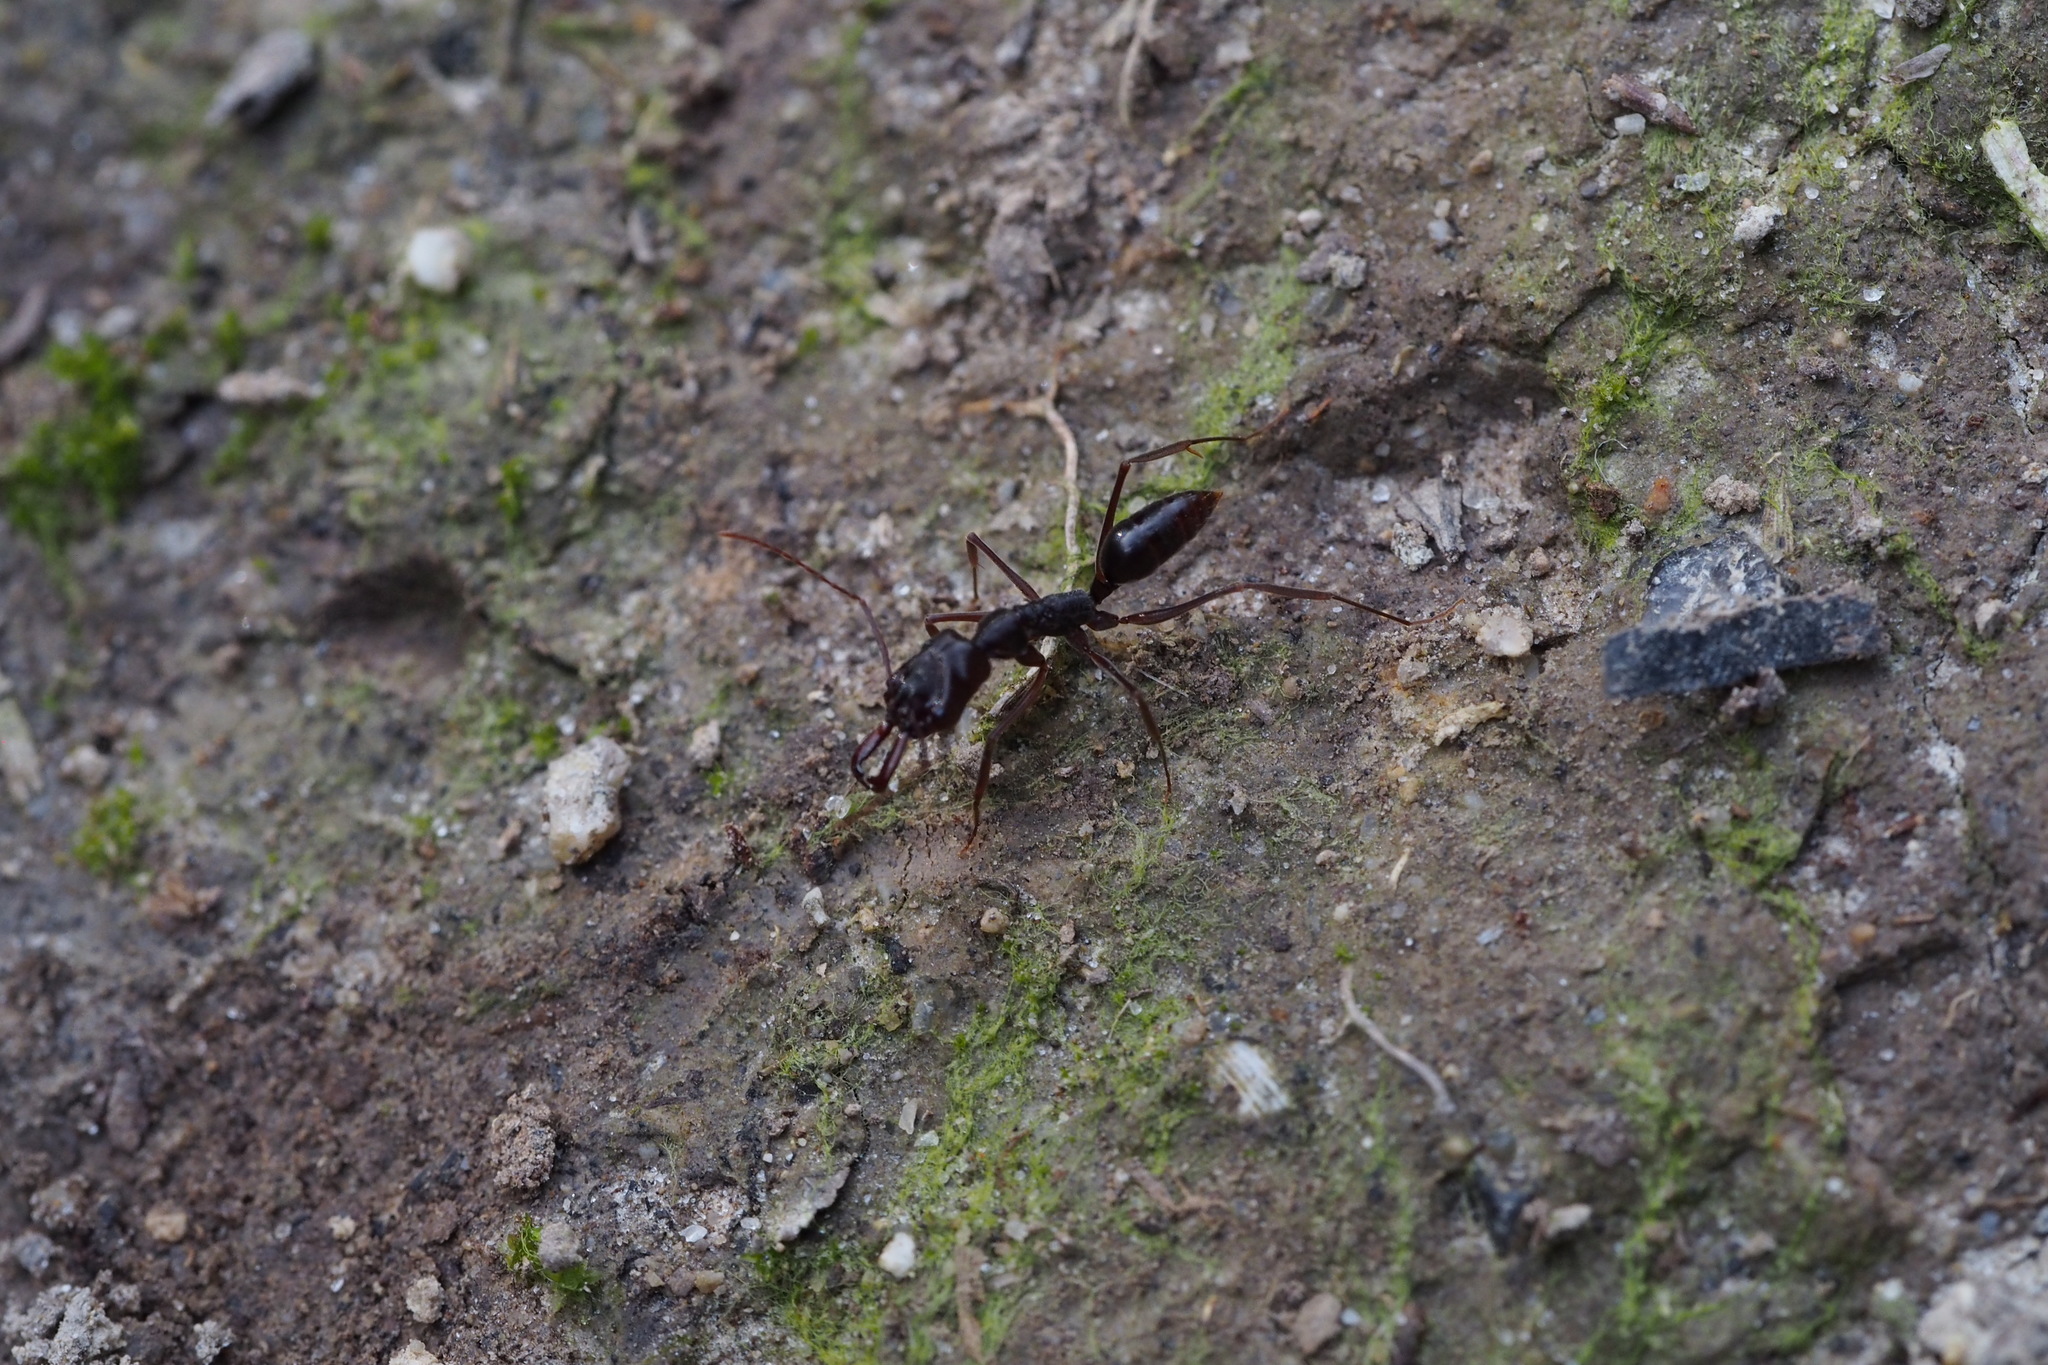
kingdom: Animalia
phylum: Arthropoda
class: Insecta
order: Hymenoptera
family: Formicidae
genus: Odontomachus
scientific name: Odontomachus monticola
